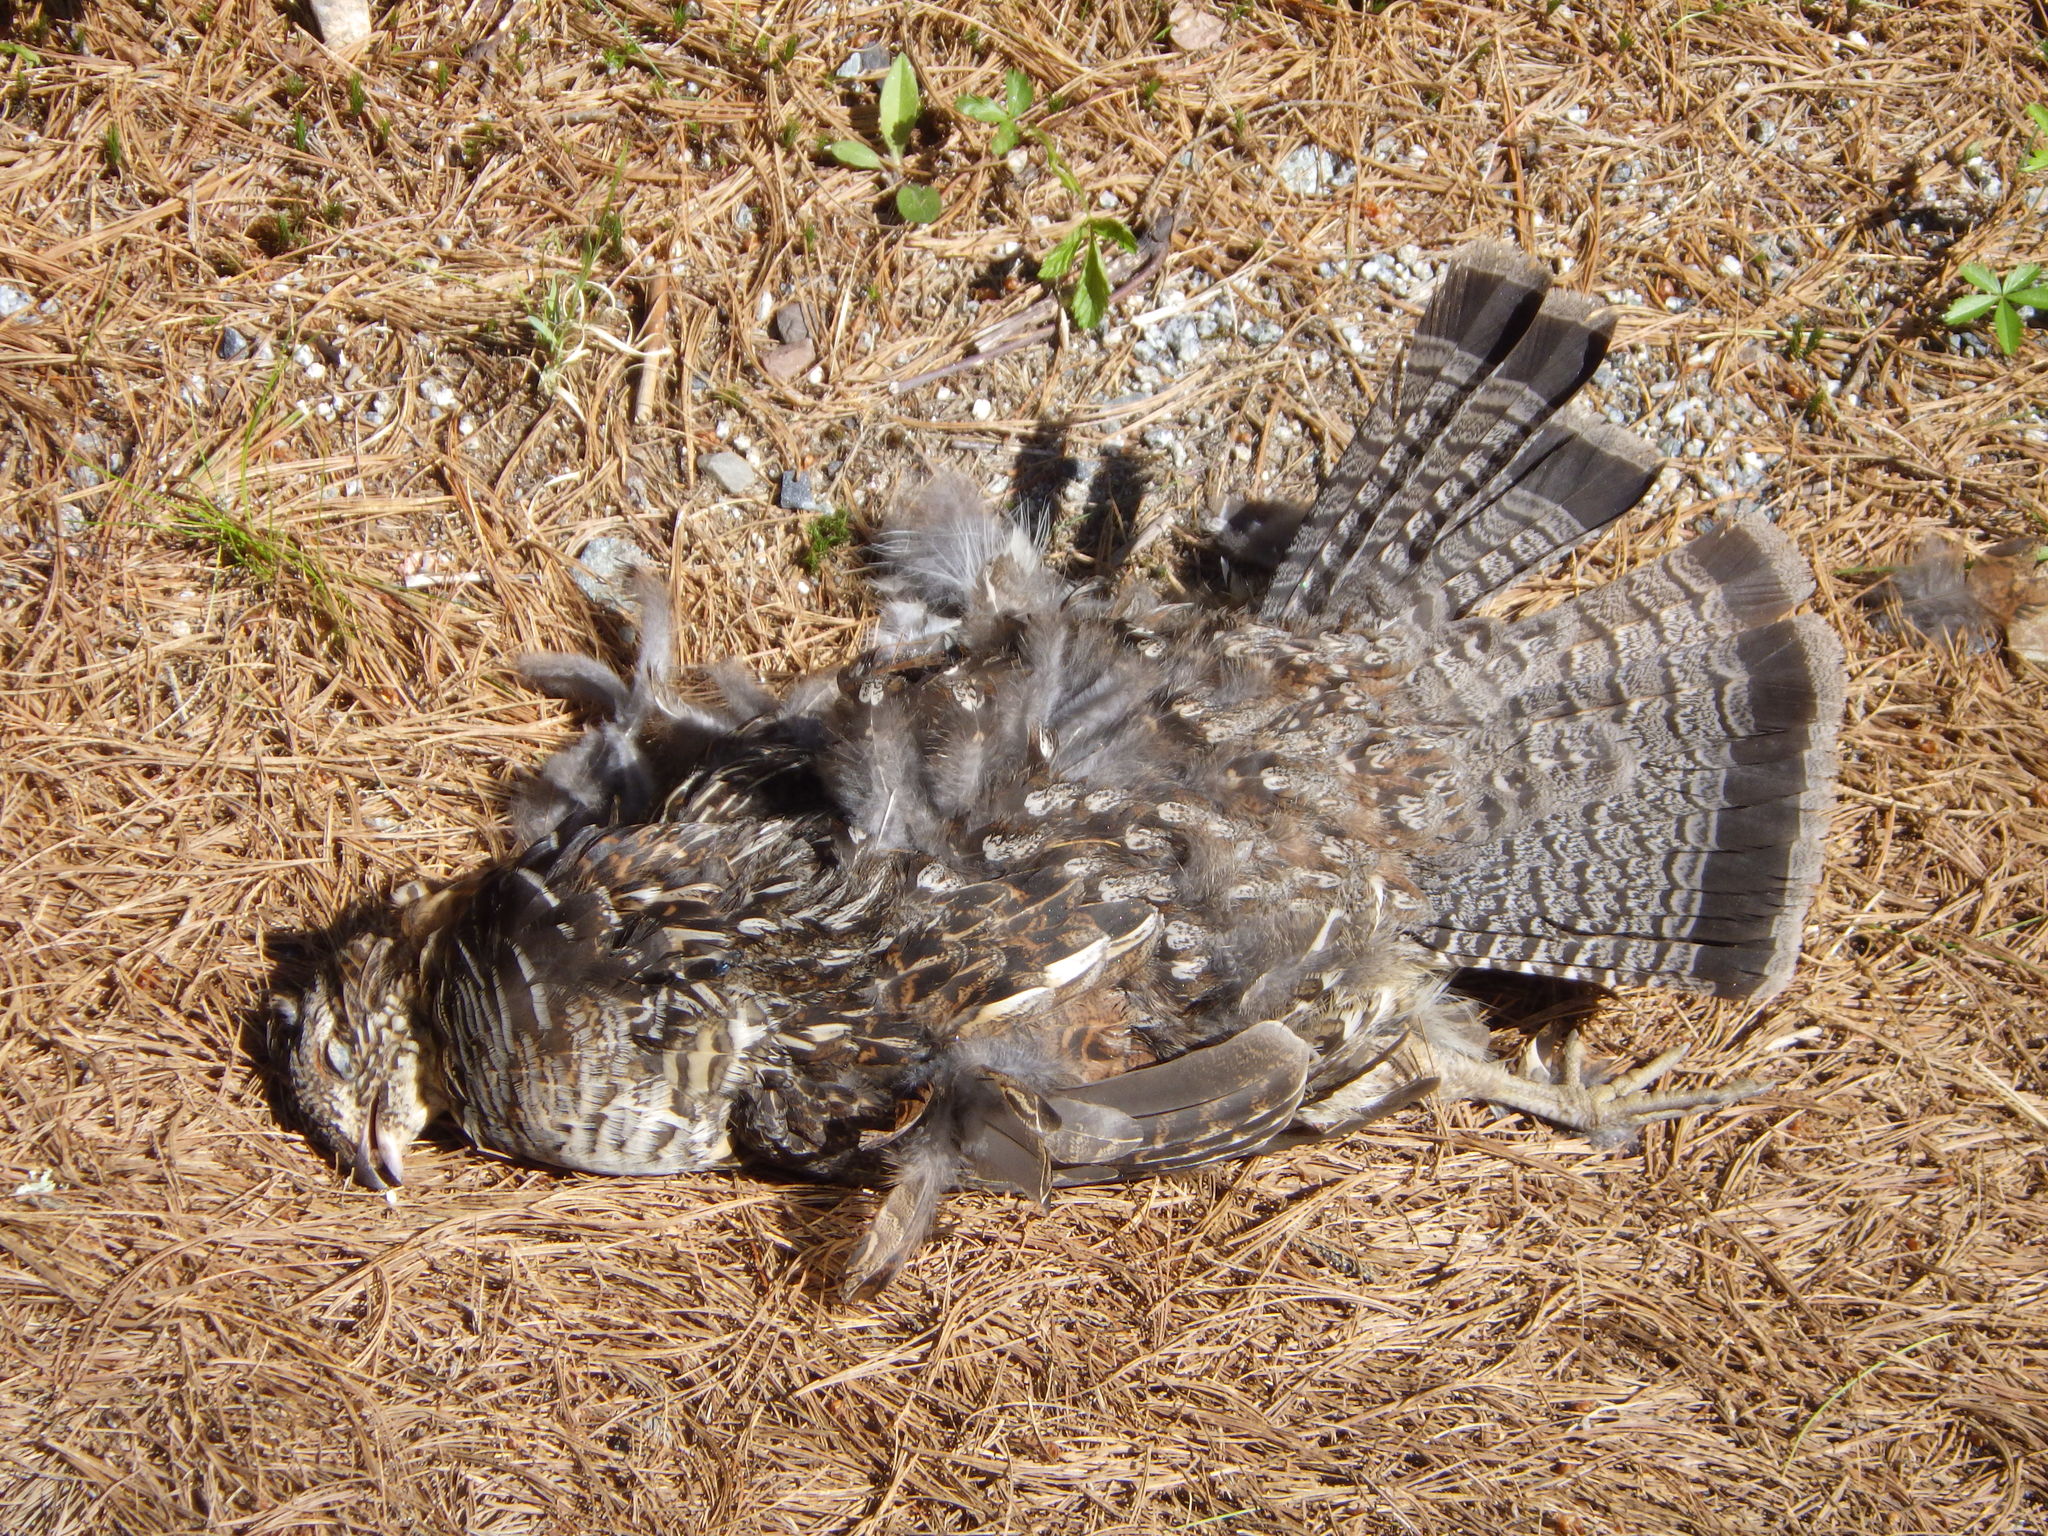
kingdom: Animalia
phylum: Chordata
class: Aves
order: Galliformes
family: Phasianidae
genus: Bonasa
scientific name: Bonasa umbellus
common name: Ruffed grouse
